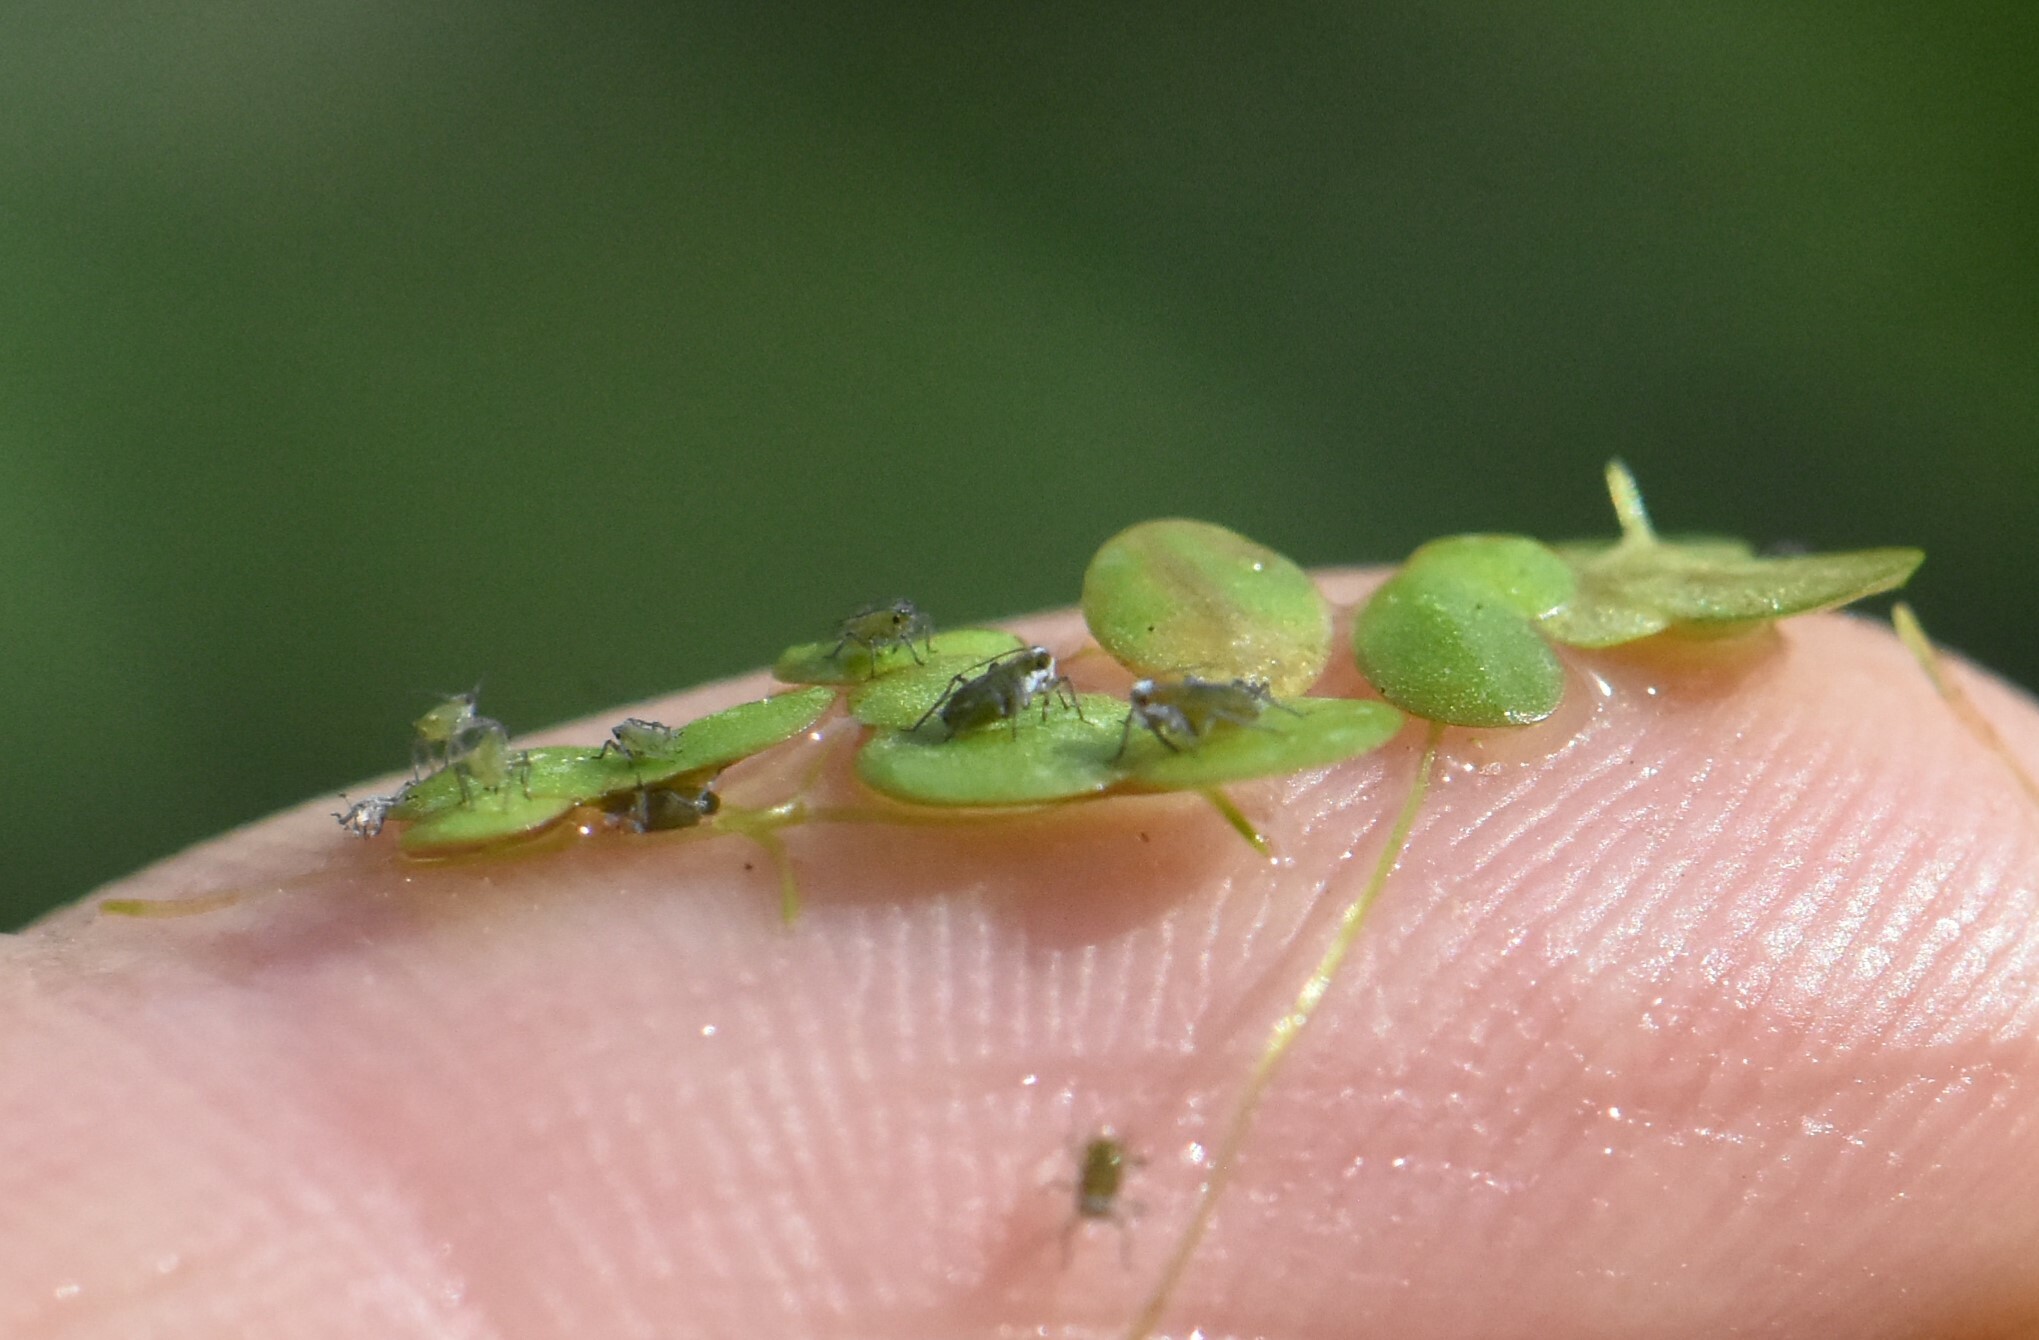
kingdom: Plantae
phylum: Tracheophyta
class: Liliopsida
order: Alismatales
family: Araceae
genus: Lemna
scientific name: Lemna gibba
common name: Fat duckweed
